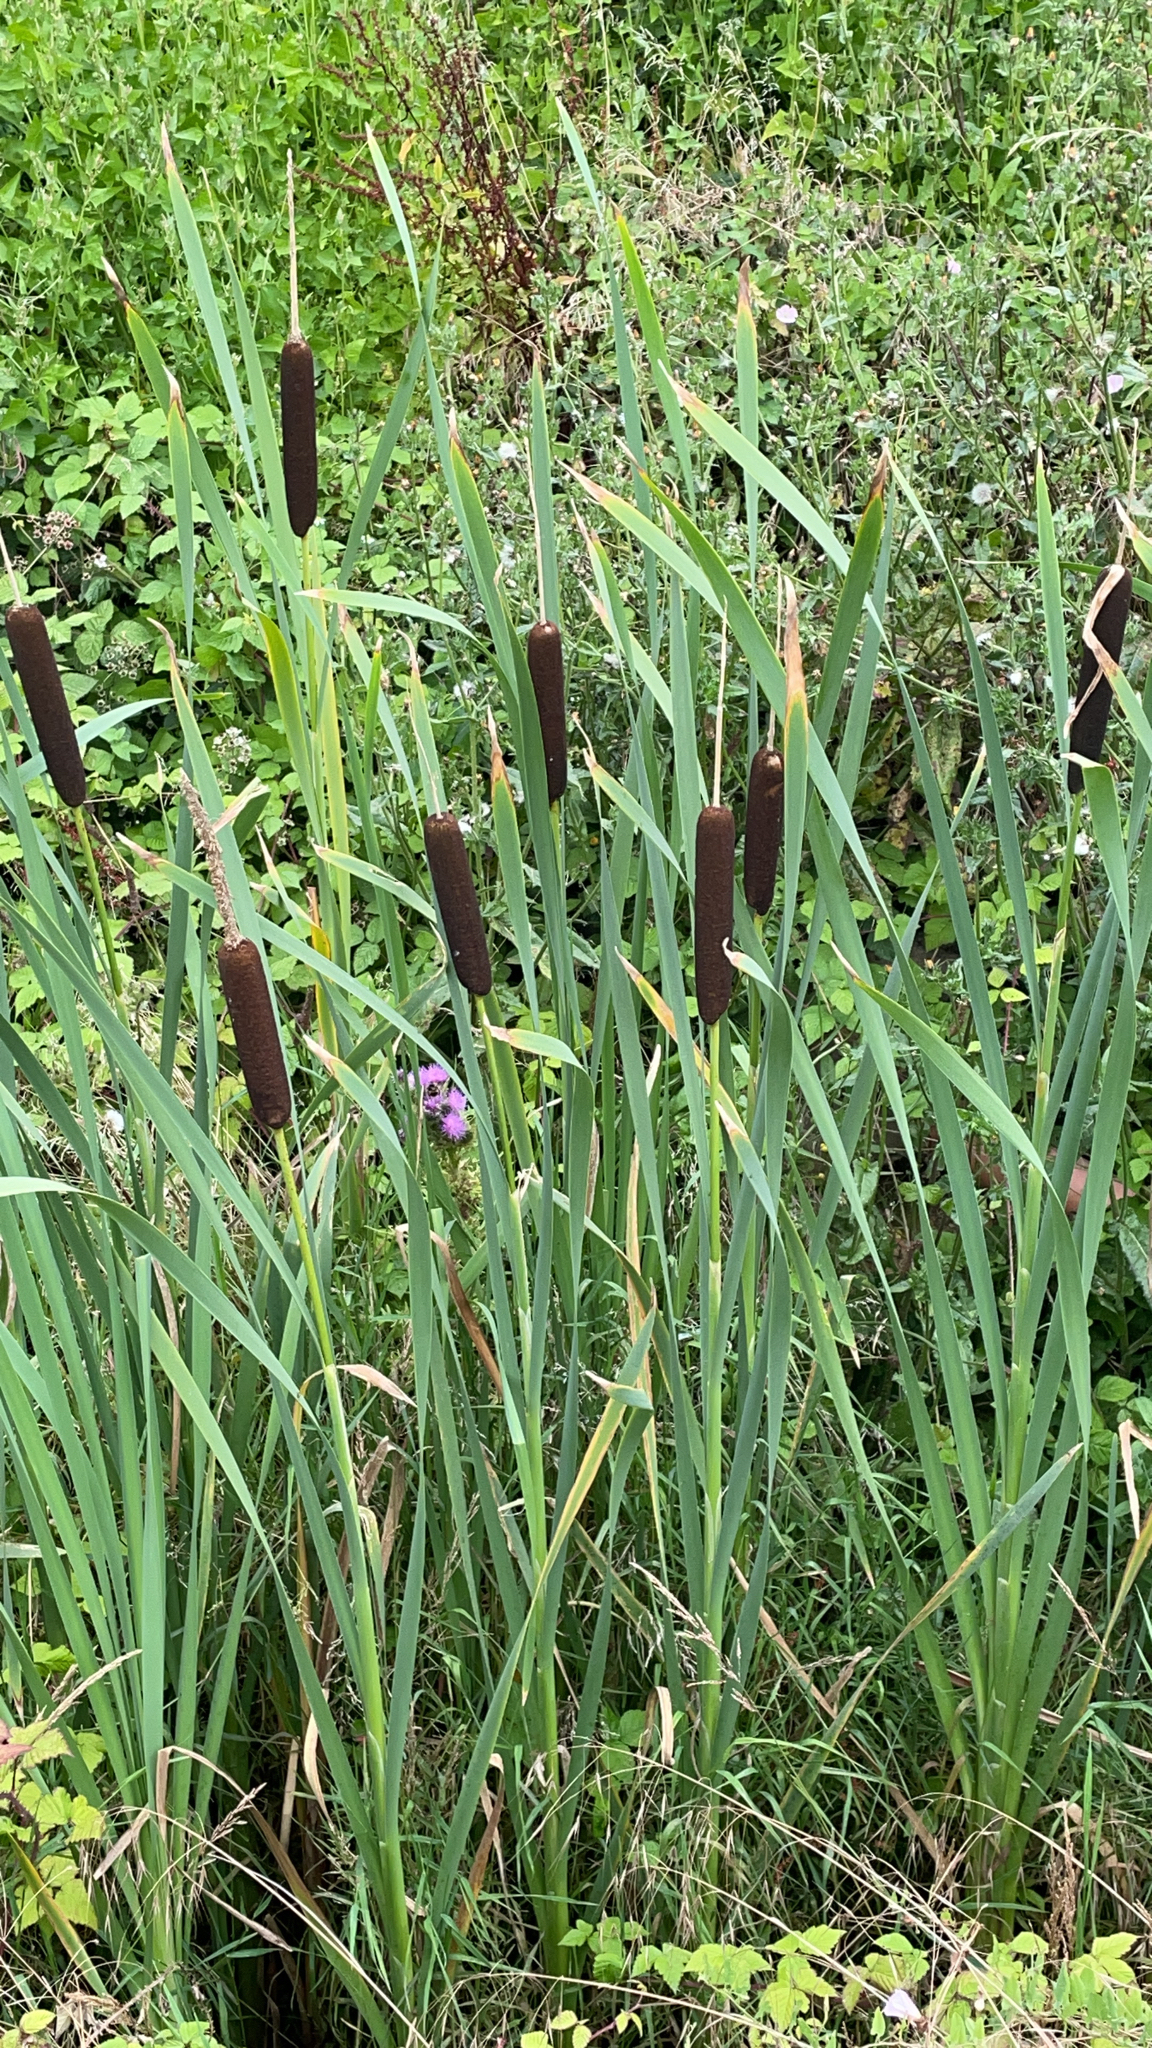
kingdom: Plantae
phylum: Tracheophyta
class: Liliopsida
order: Poales
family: Typhaceae
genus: Typha
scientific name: Typha latifolia
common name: Broadleaf cattail
